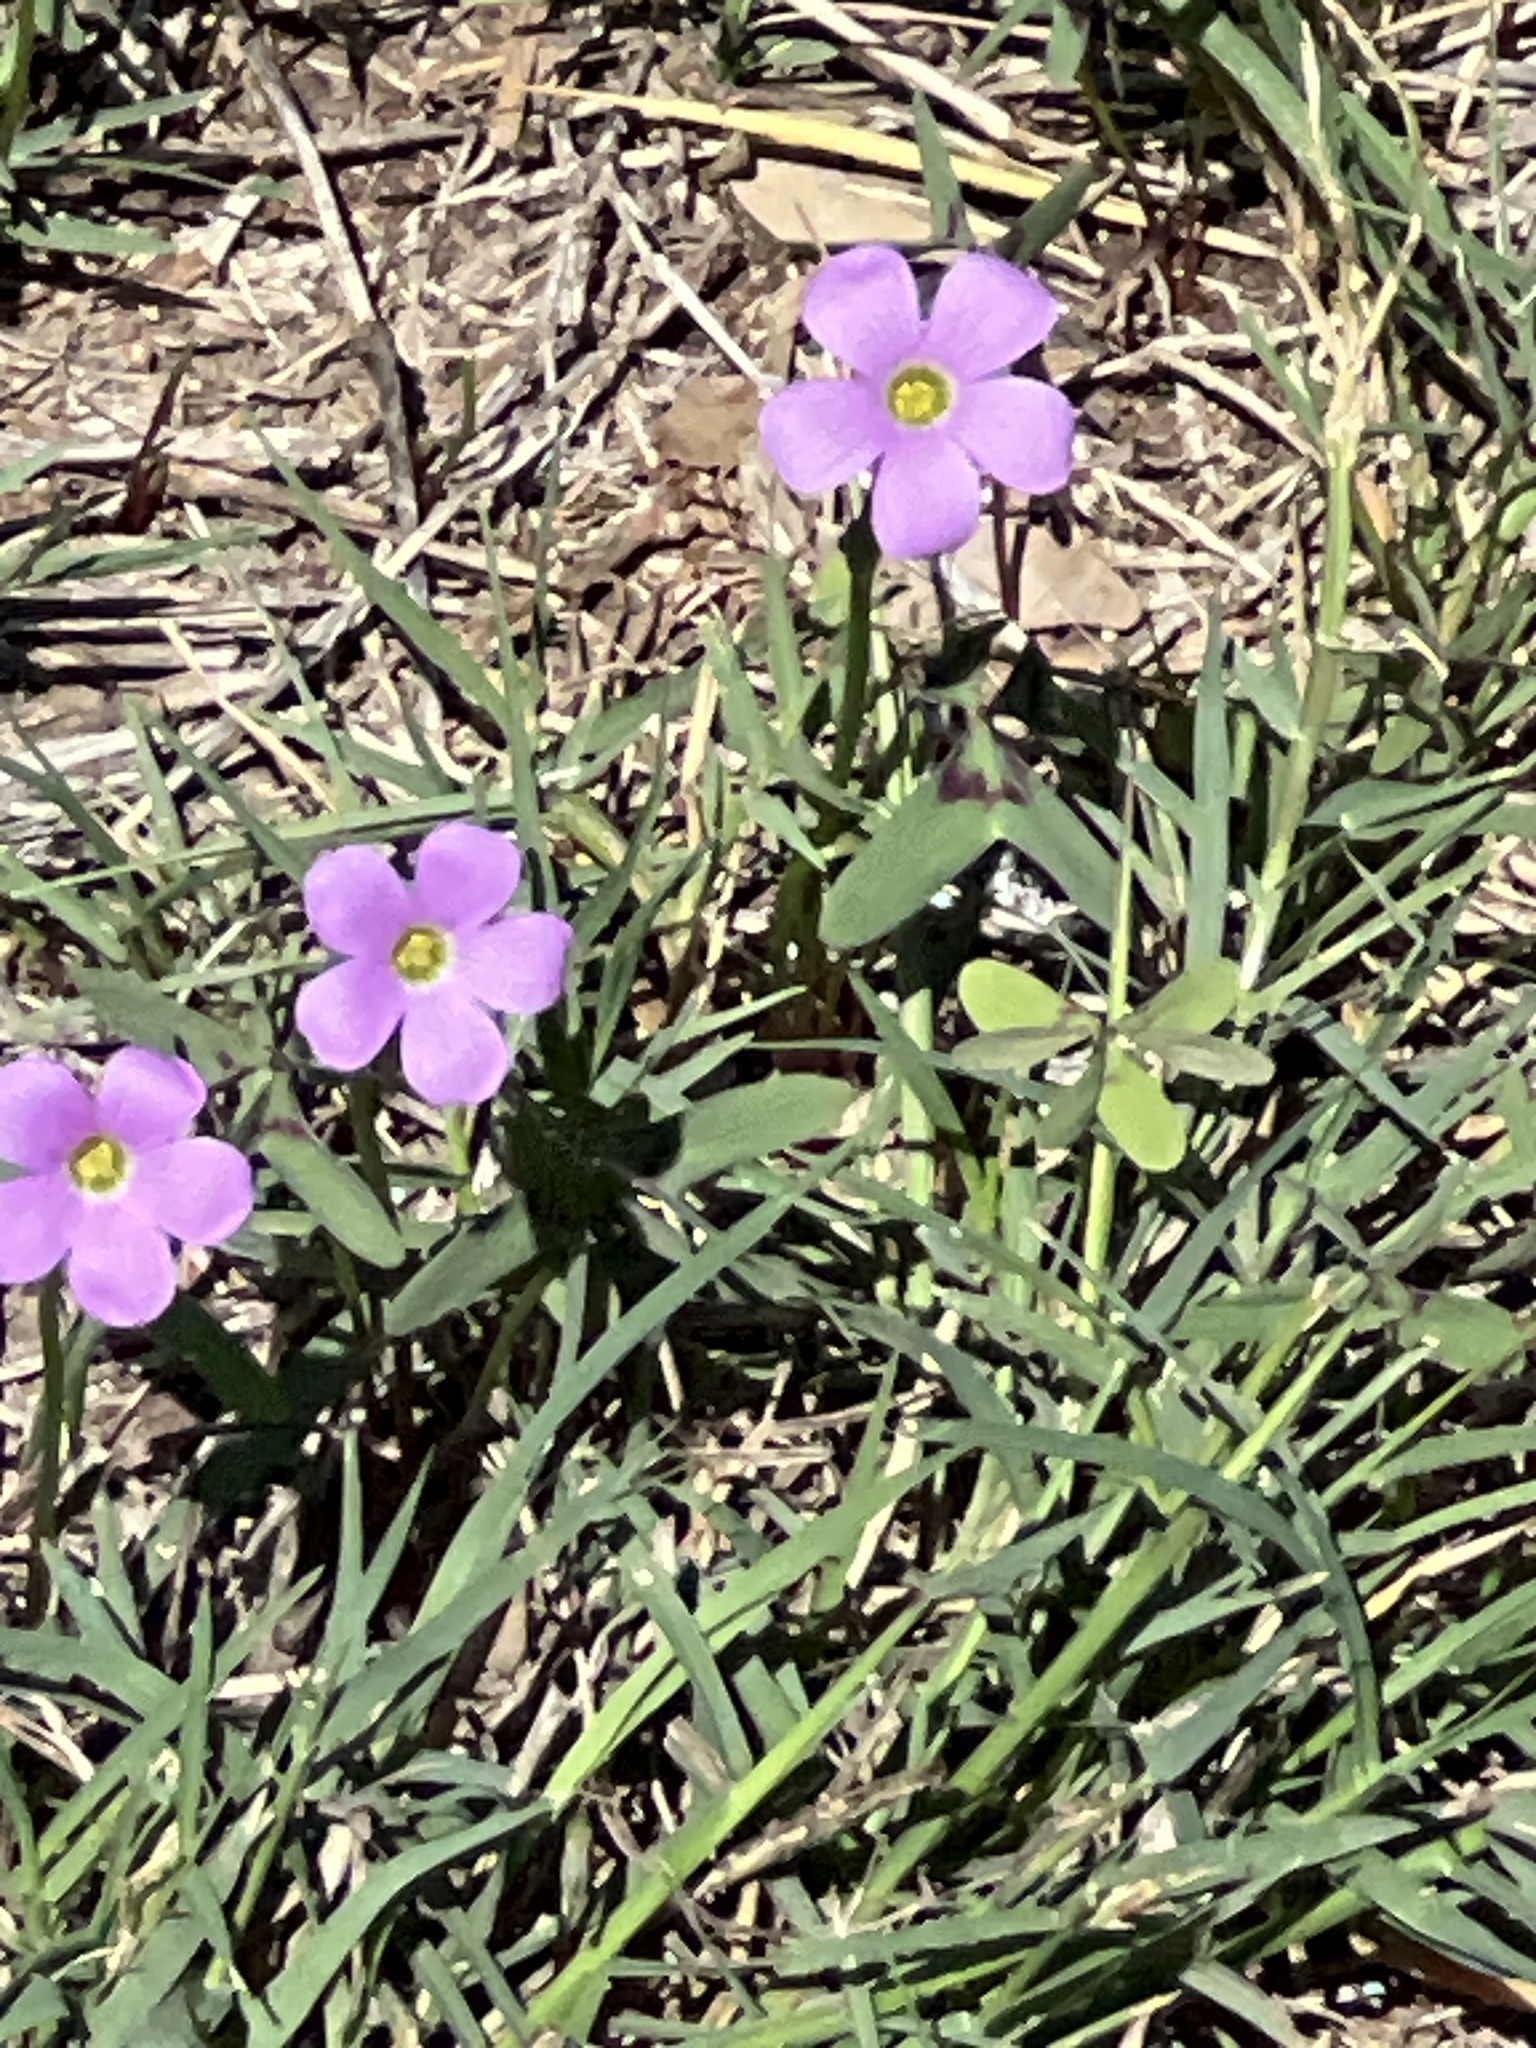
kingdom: Plantae
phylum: Tracheophyta
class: Magnoliopsida
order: Oxalidales
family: Oxalidaceae
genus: Oxalis
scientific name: Oxalis drummondii
